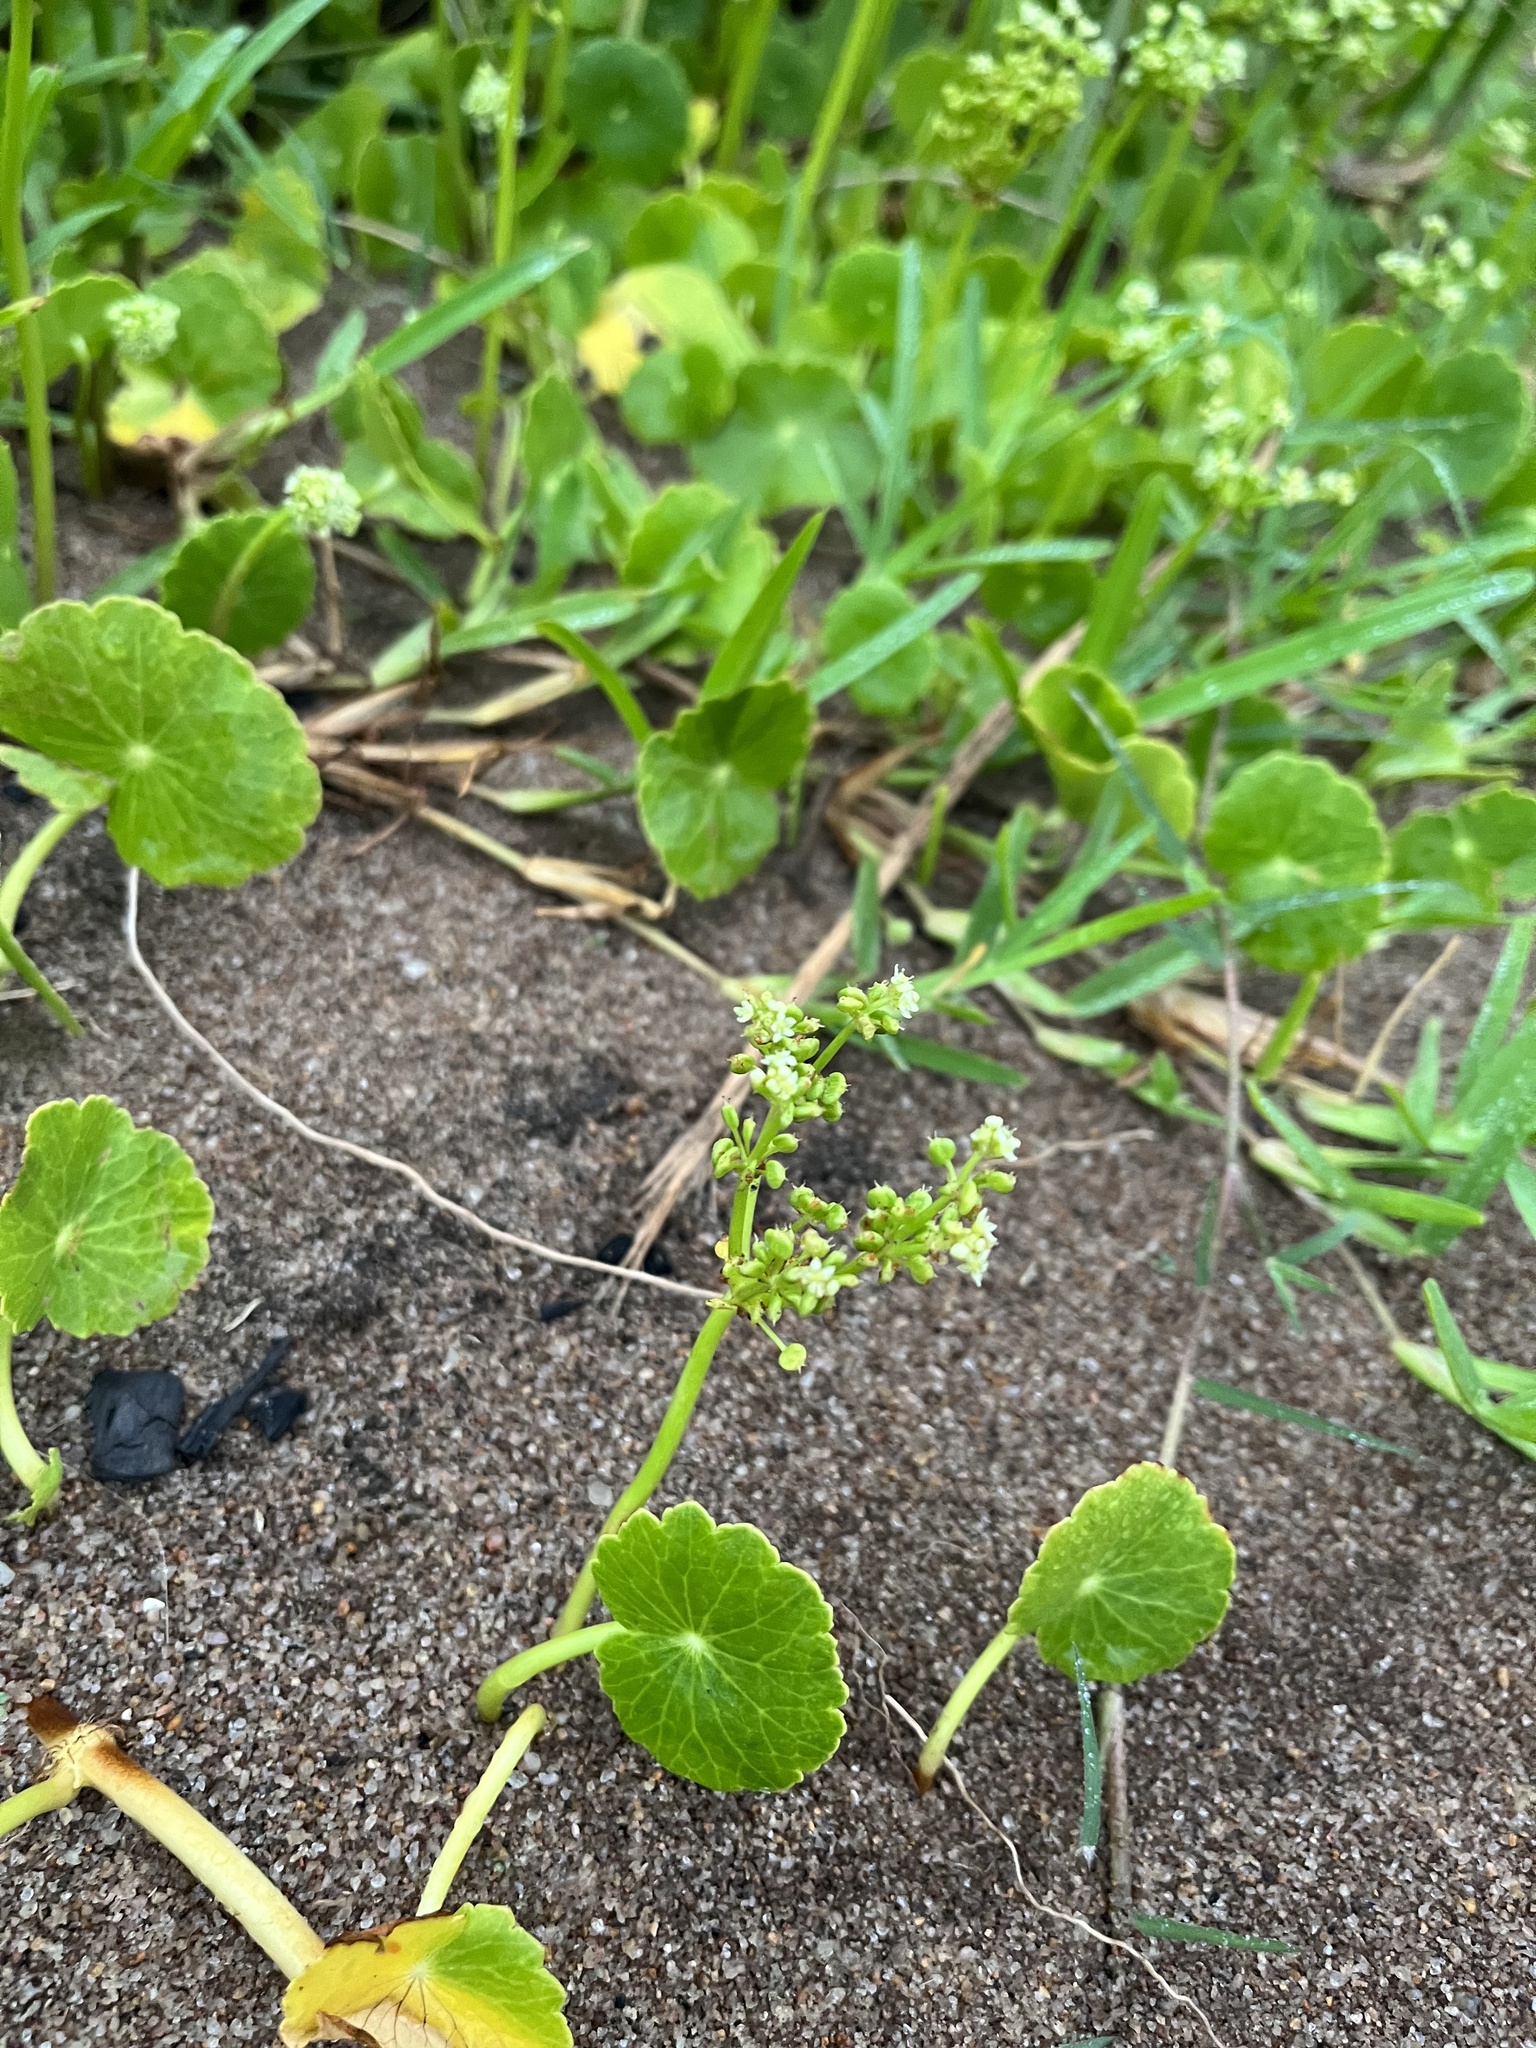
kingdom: Plantae
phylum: Tracheophyta
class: Magnoliopsida
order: Apiales
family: Araliaceae
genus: Hydrocotyle
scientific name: Hydrocotyle bonariensis
